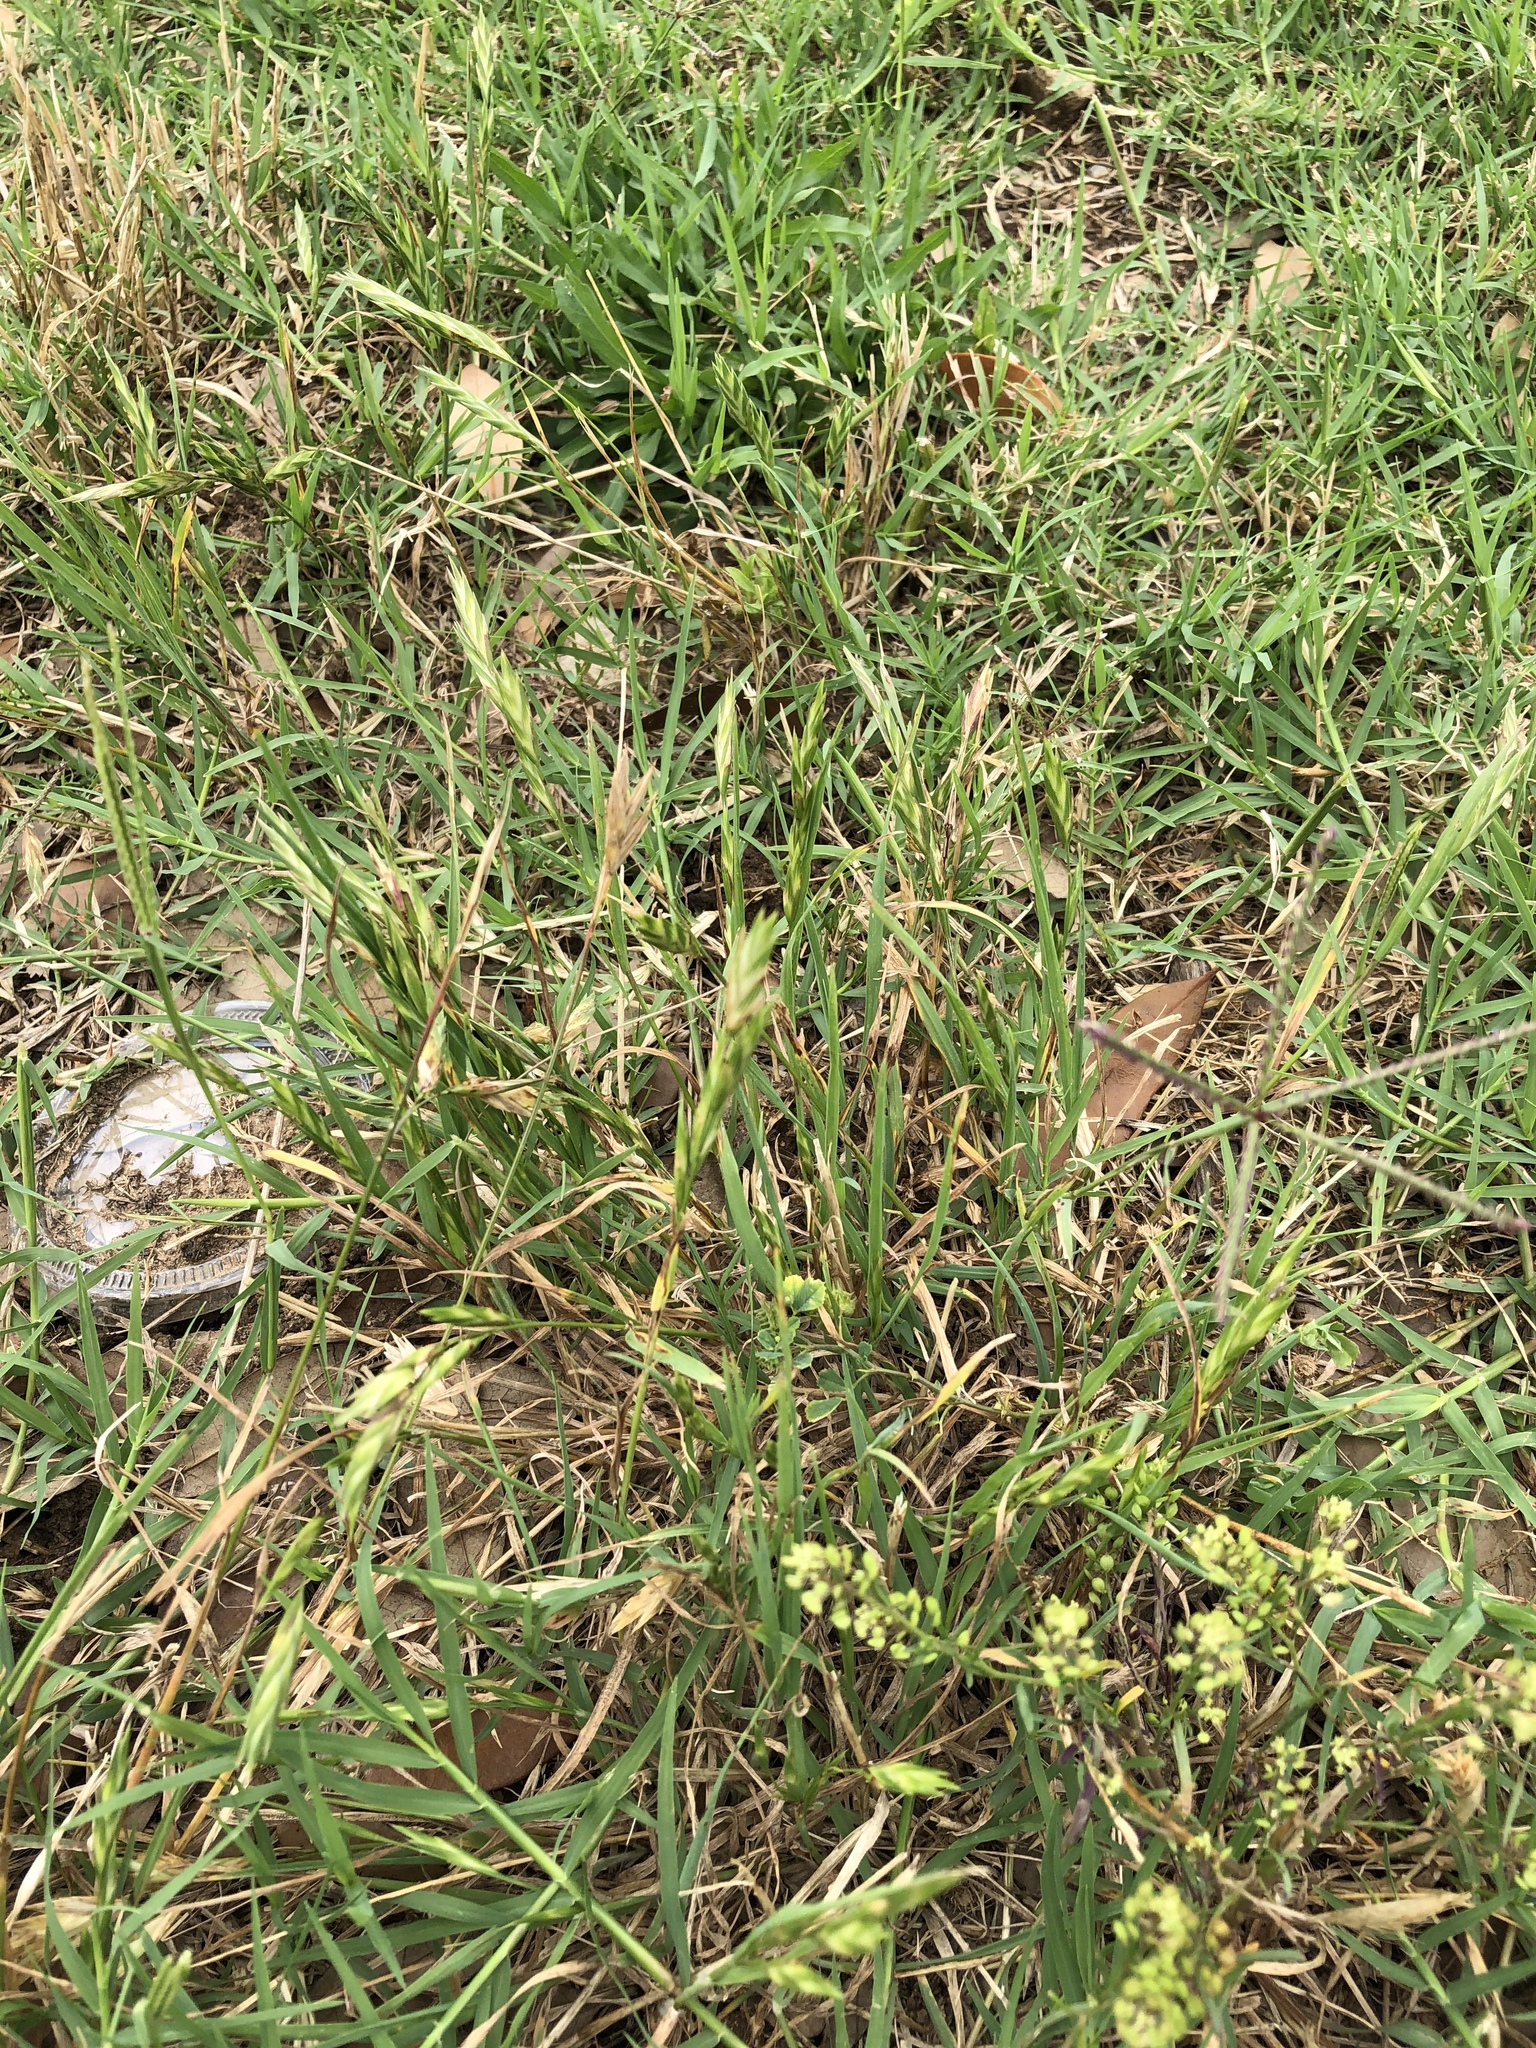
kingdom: Plantae
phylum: Tracheophyta
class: Liliopsida
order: Poales
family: Poaceae
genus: Bromus
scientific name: Bromus catharticus
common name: Rescuegrass
